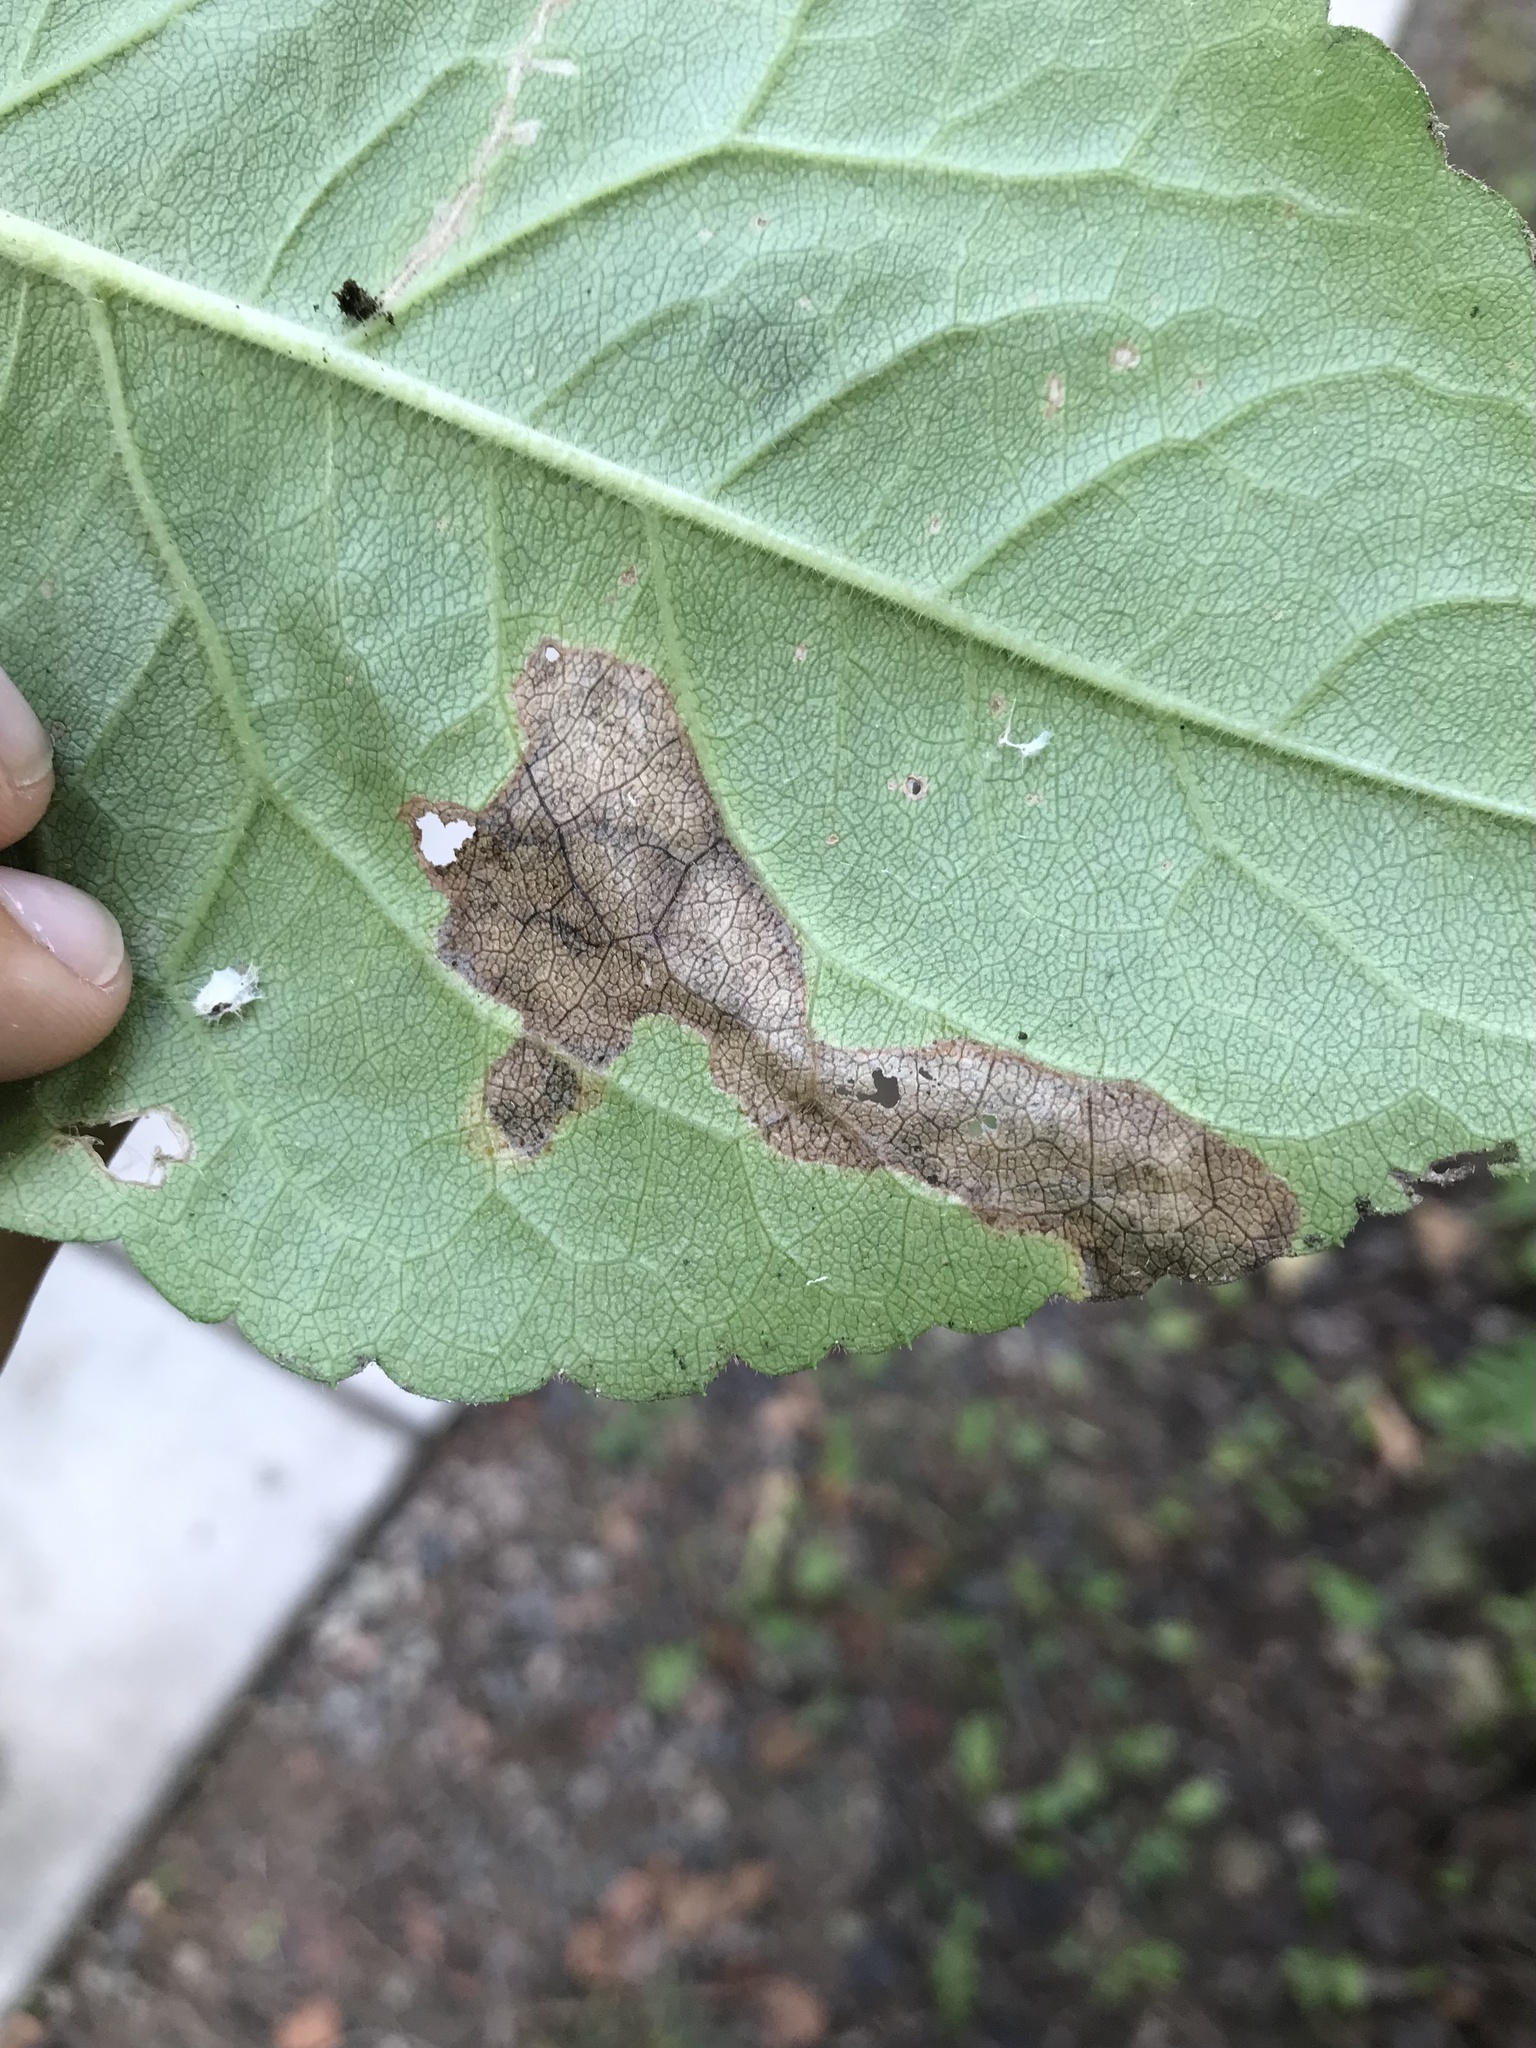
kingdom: Animalia
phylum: Arthropoda
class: Insecta
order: Coleoptera
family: Chrysomelidae
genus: Sumitrosis
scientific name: Sumitrosis inaequalis
